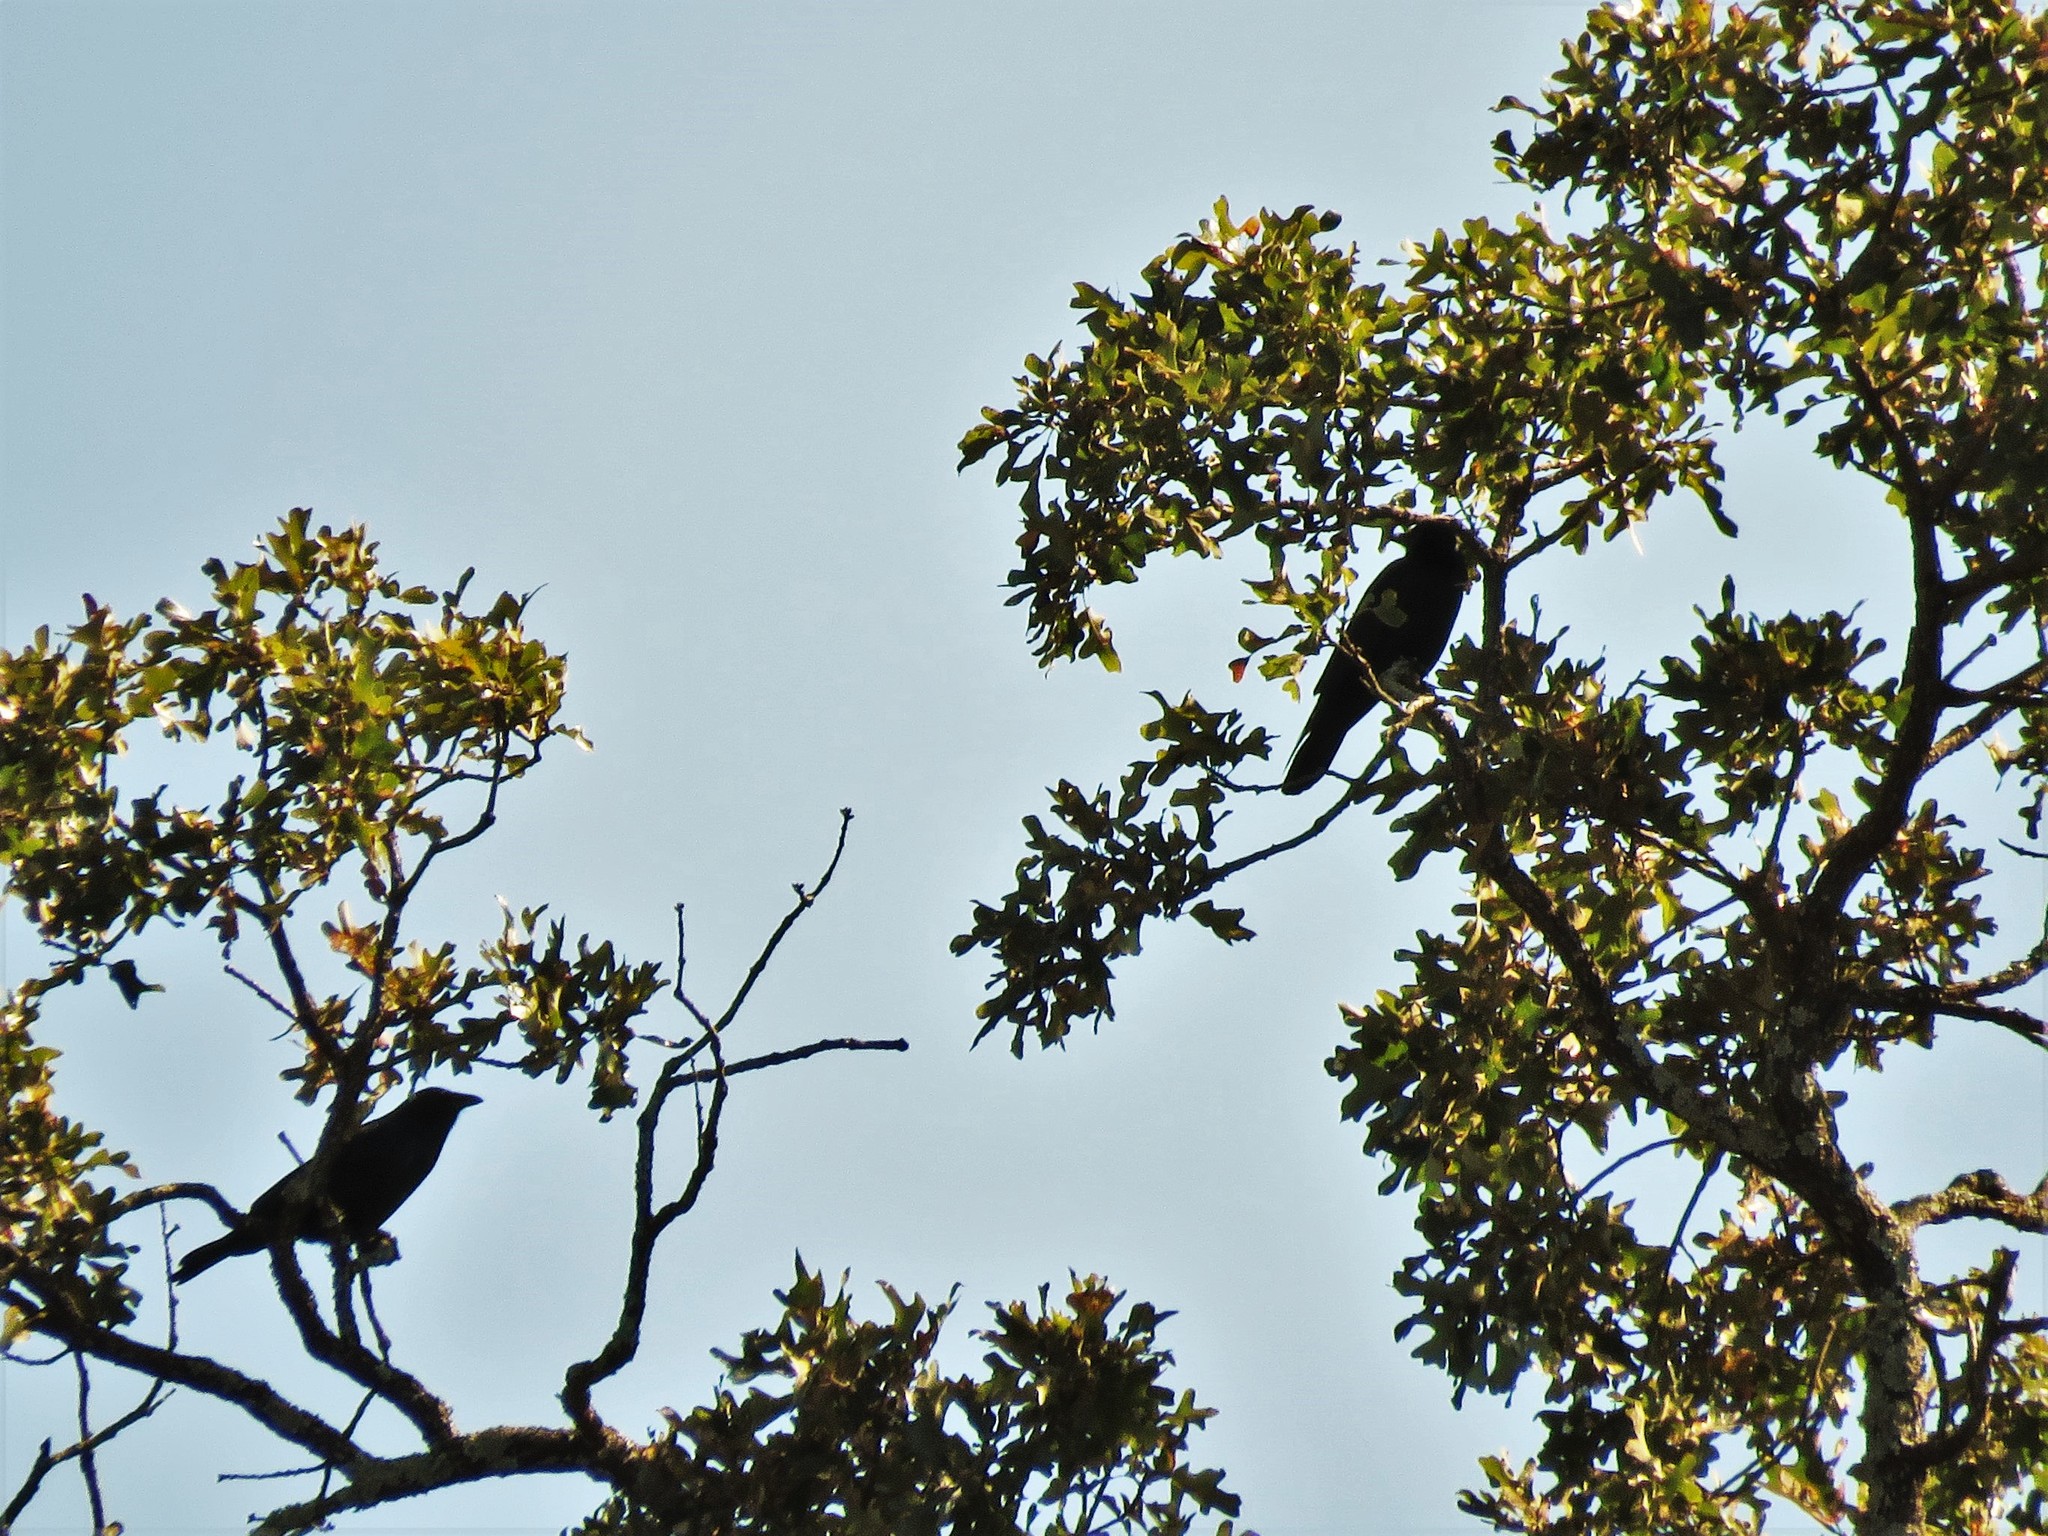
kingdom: Animalia
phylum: Chordata
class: Aves
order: Passeriformes
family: Corvidae
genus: Corvus
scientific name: Corvus ossifragus
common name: Fish crow
